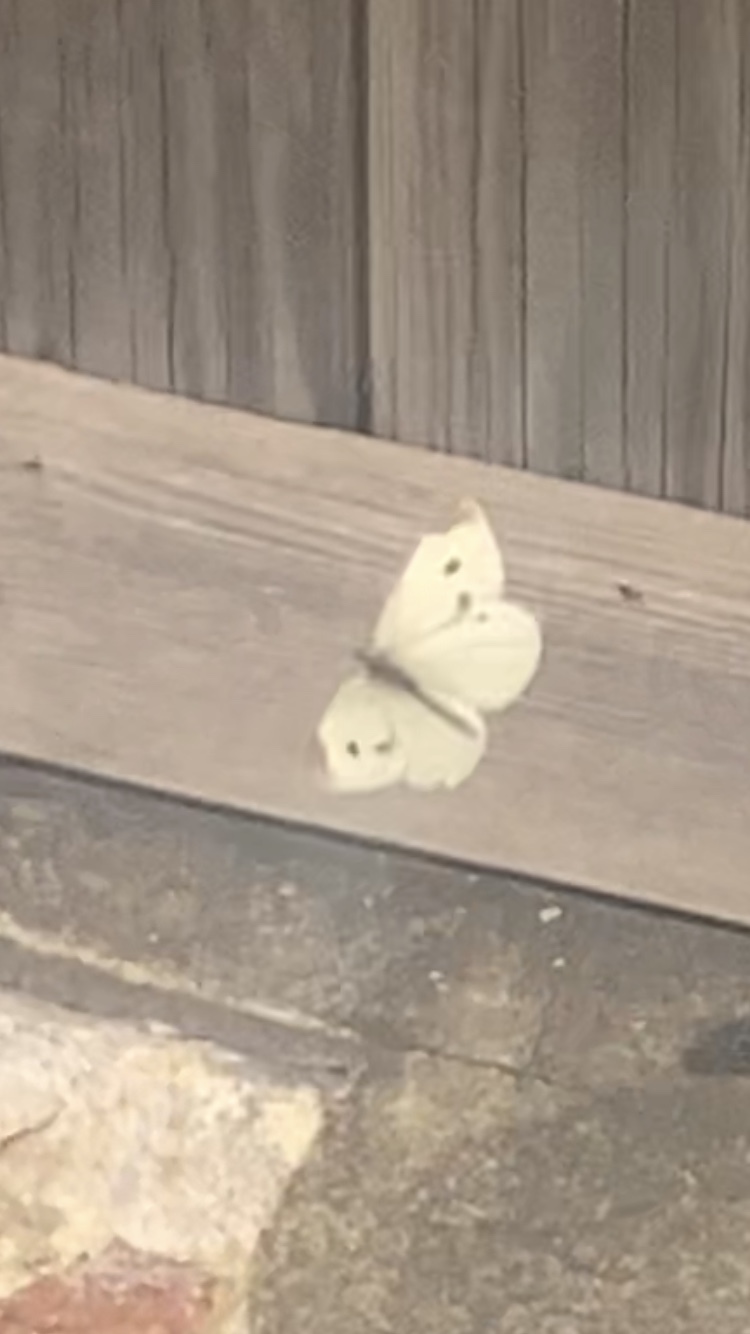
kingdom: Animalia
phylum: Arthropoda
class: Insecta
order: Lepidoptera
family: Pieridae
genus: Pieris
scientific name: Pieris rapae
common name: Small white
